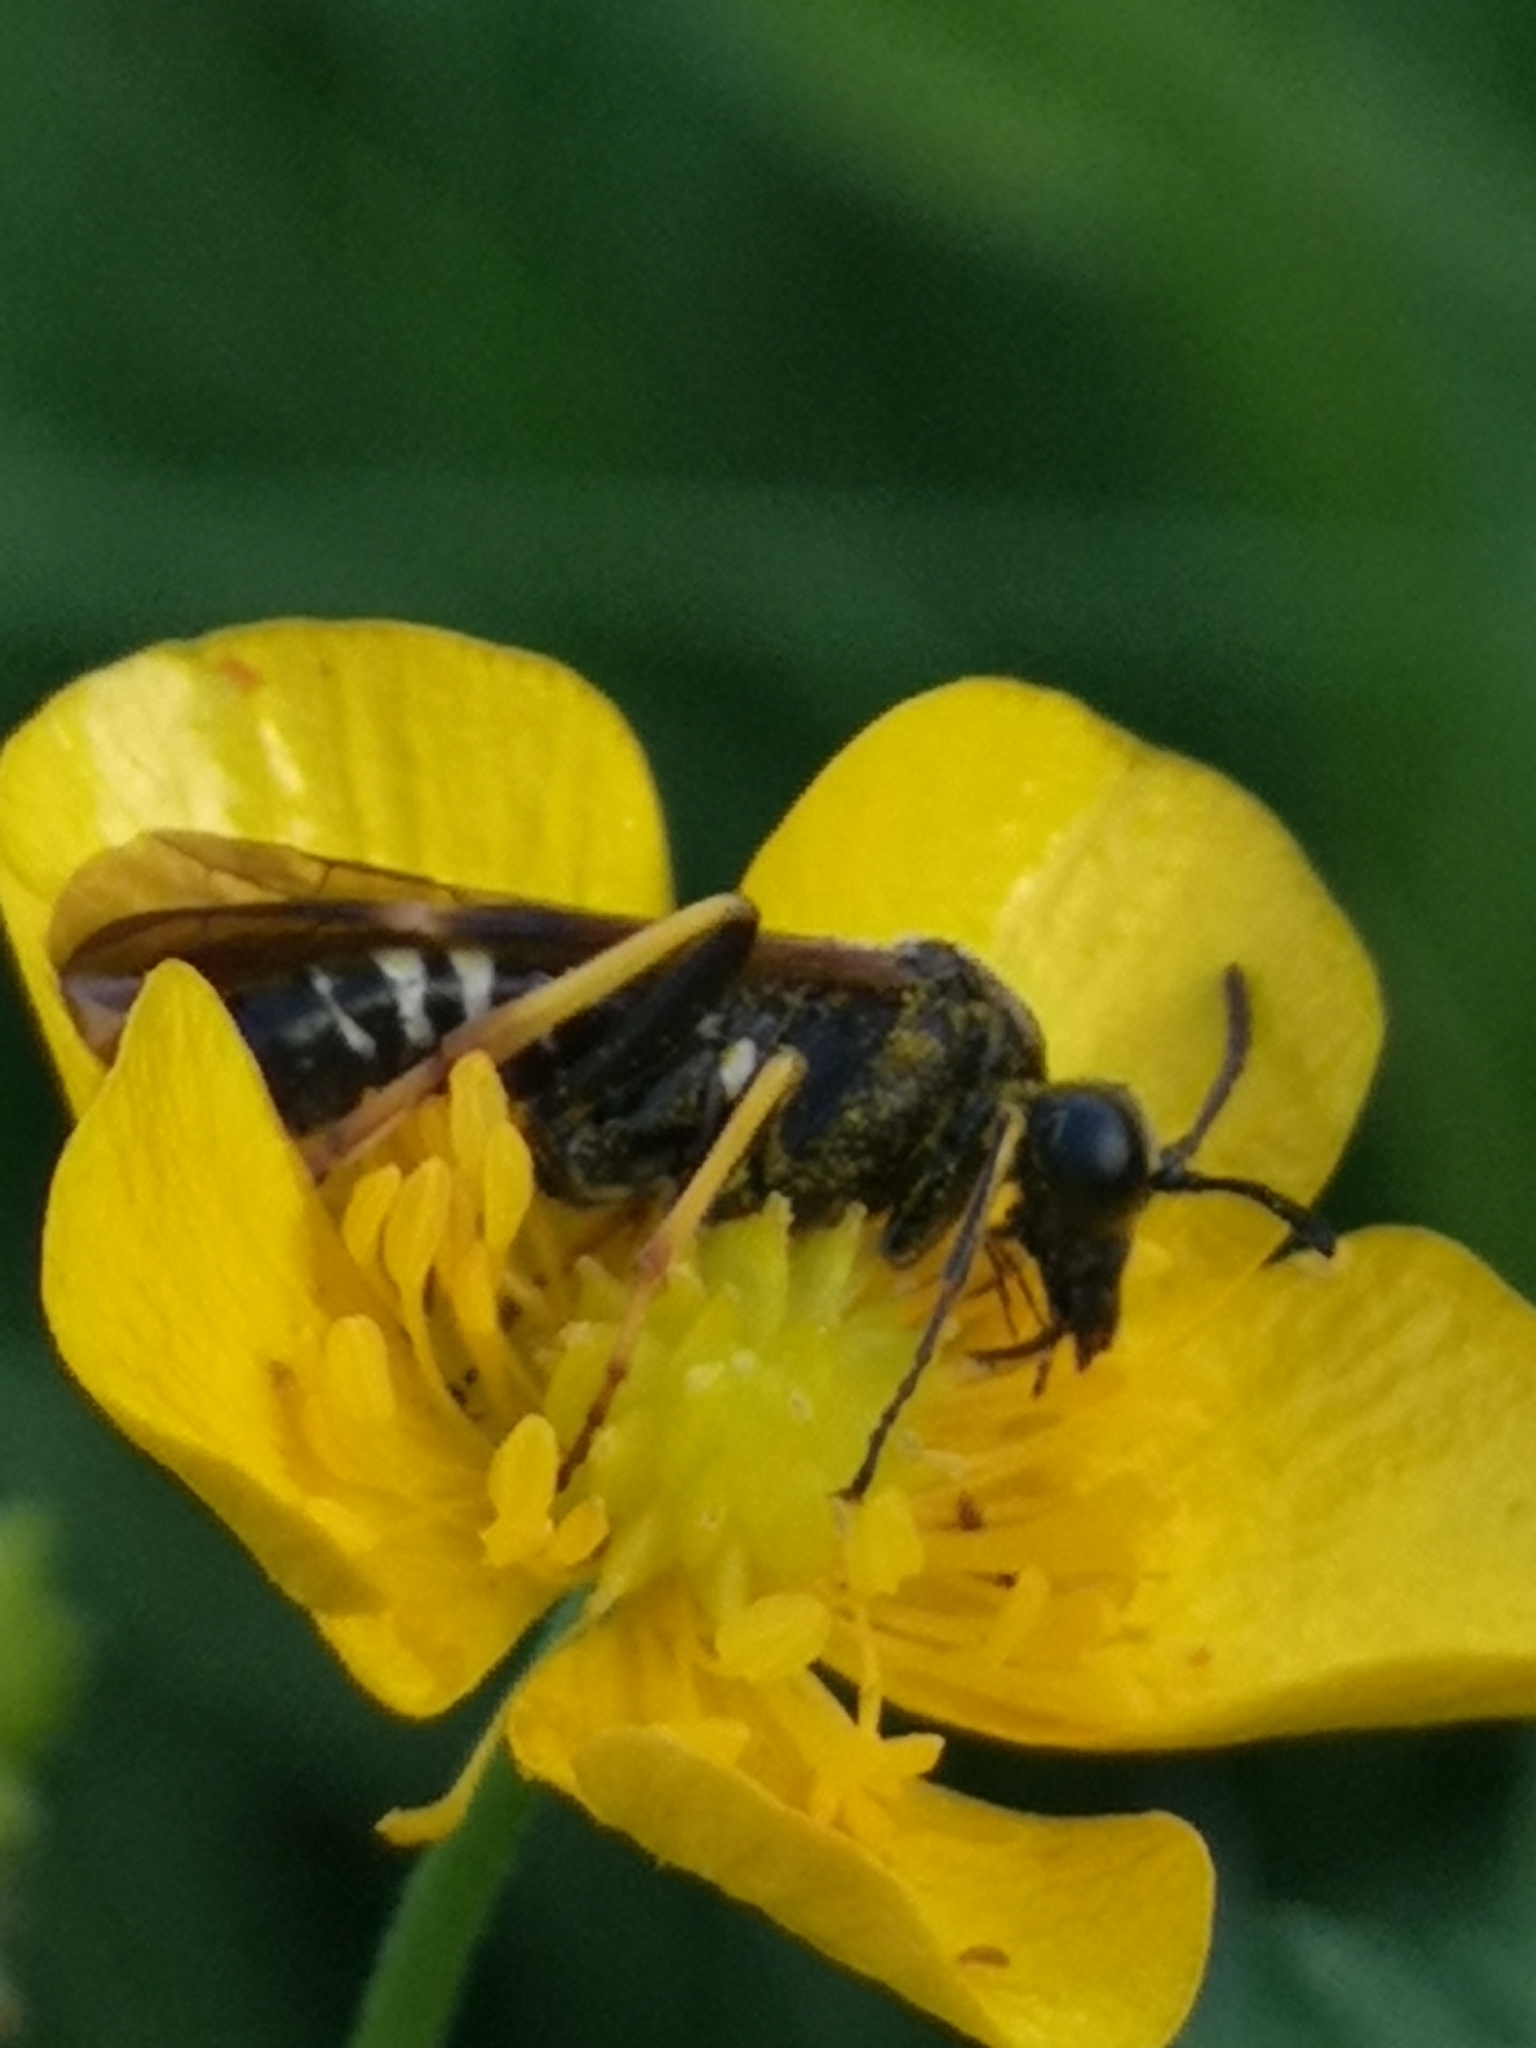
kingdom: Animalia
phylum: Arthropoda
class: Insecta
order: Hymenoptera
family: Tenthredinidae
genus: Tenthredo
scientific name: Tenthredo koehleri
